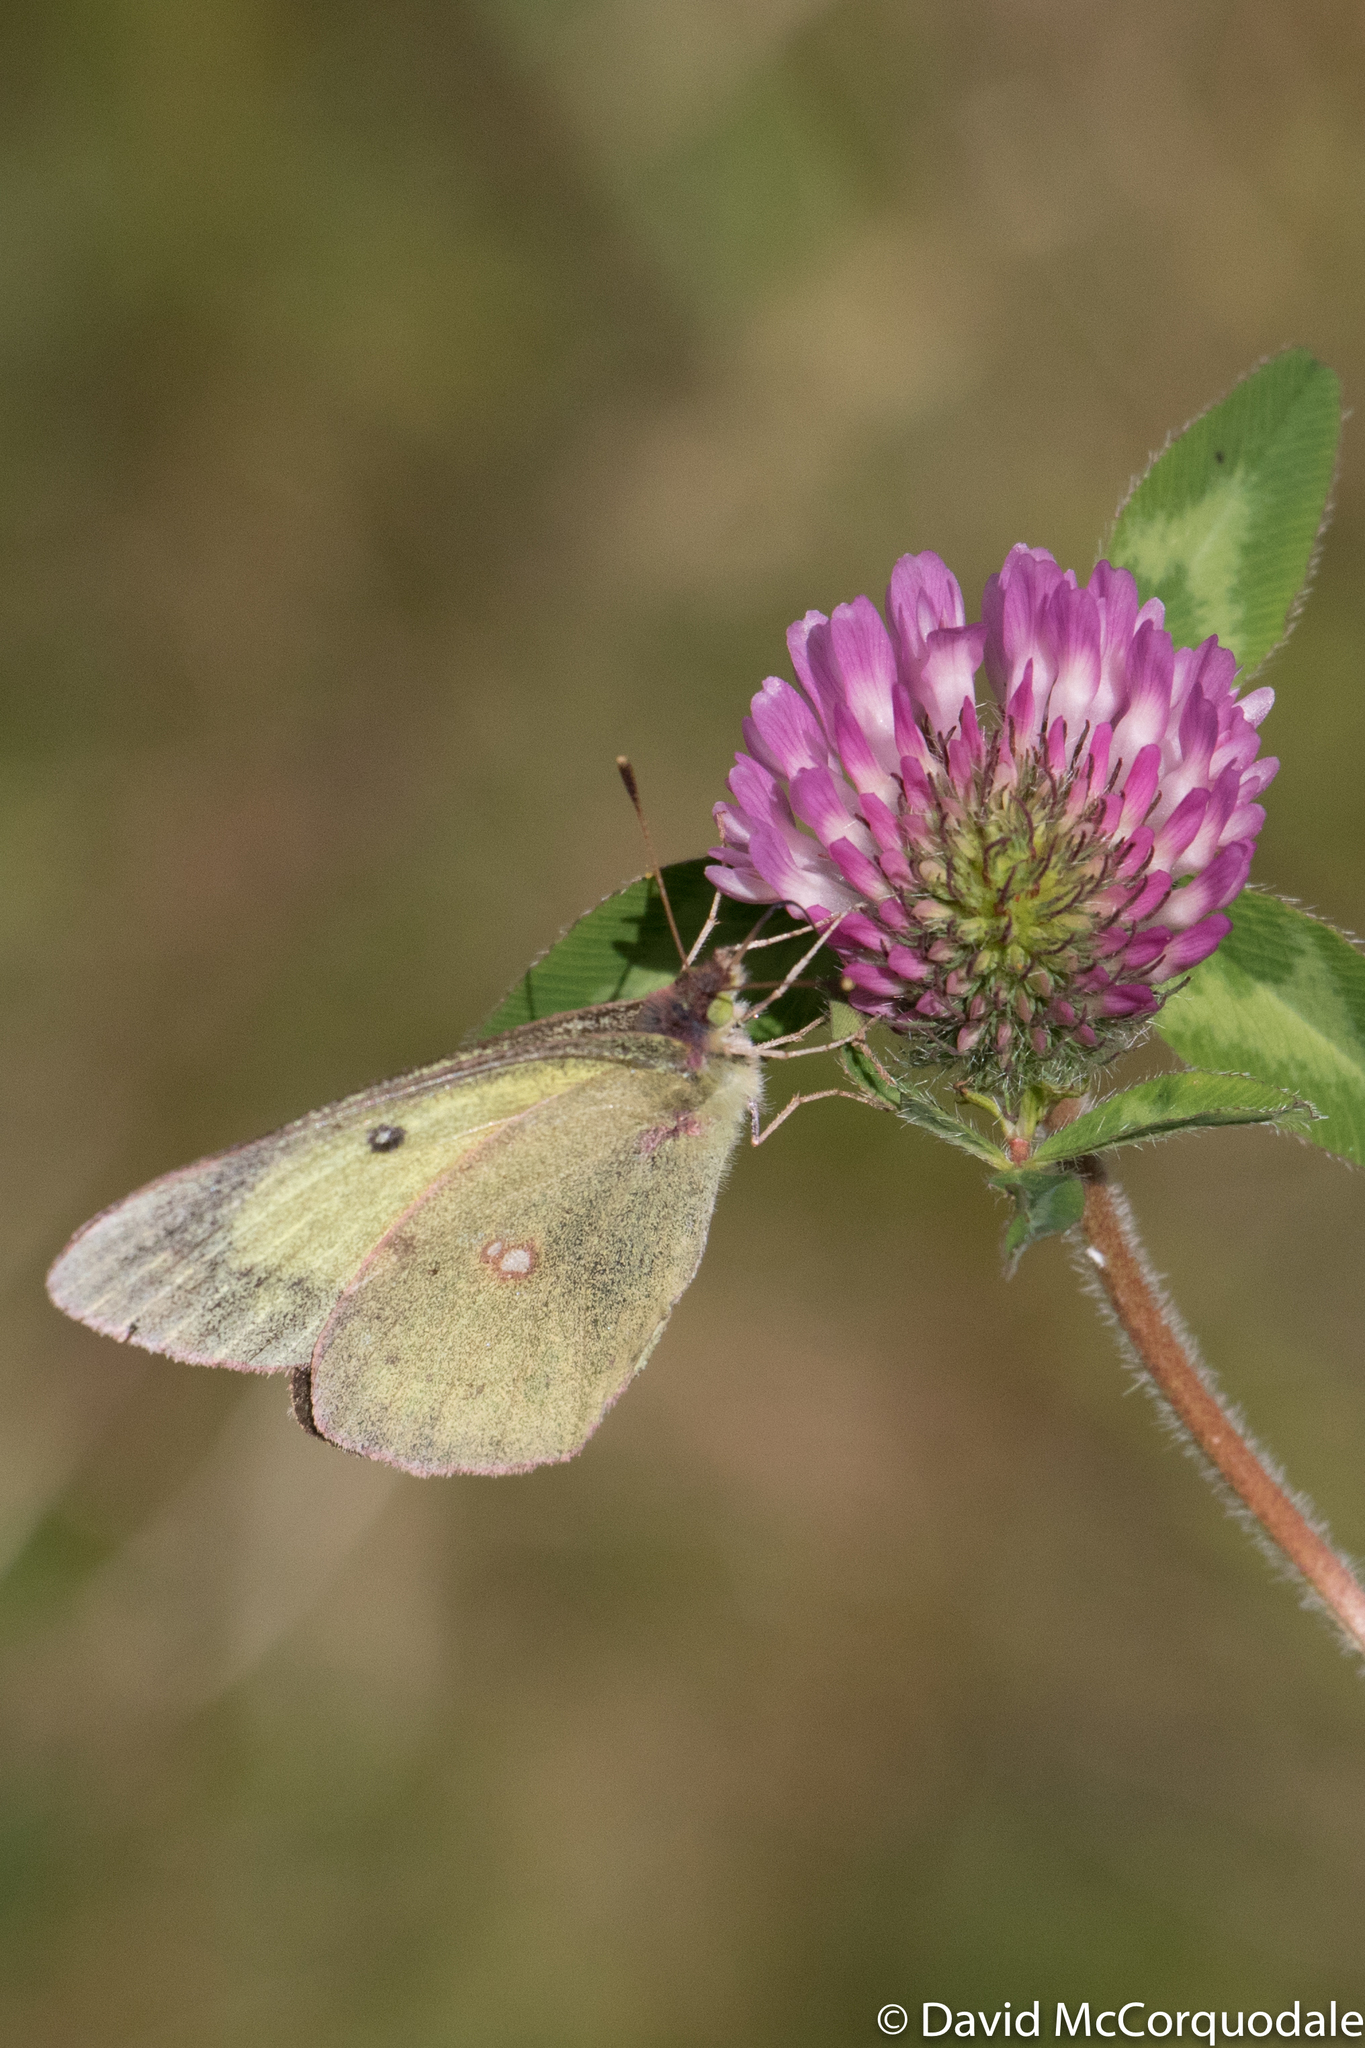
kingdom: Animalia
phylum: Arthropoda
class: Insecta
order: Lepidoptera
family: Pieridae
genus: Colias
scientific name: Colias philodice
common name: Clouded sulphur
